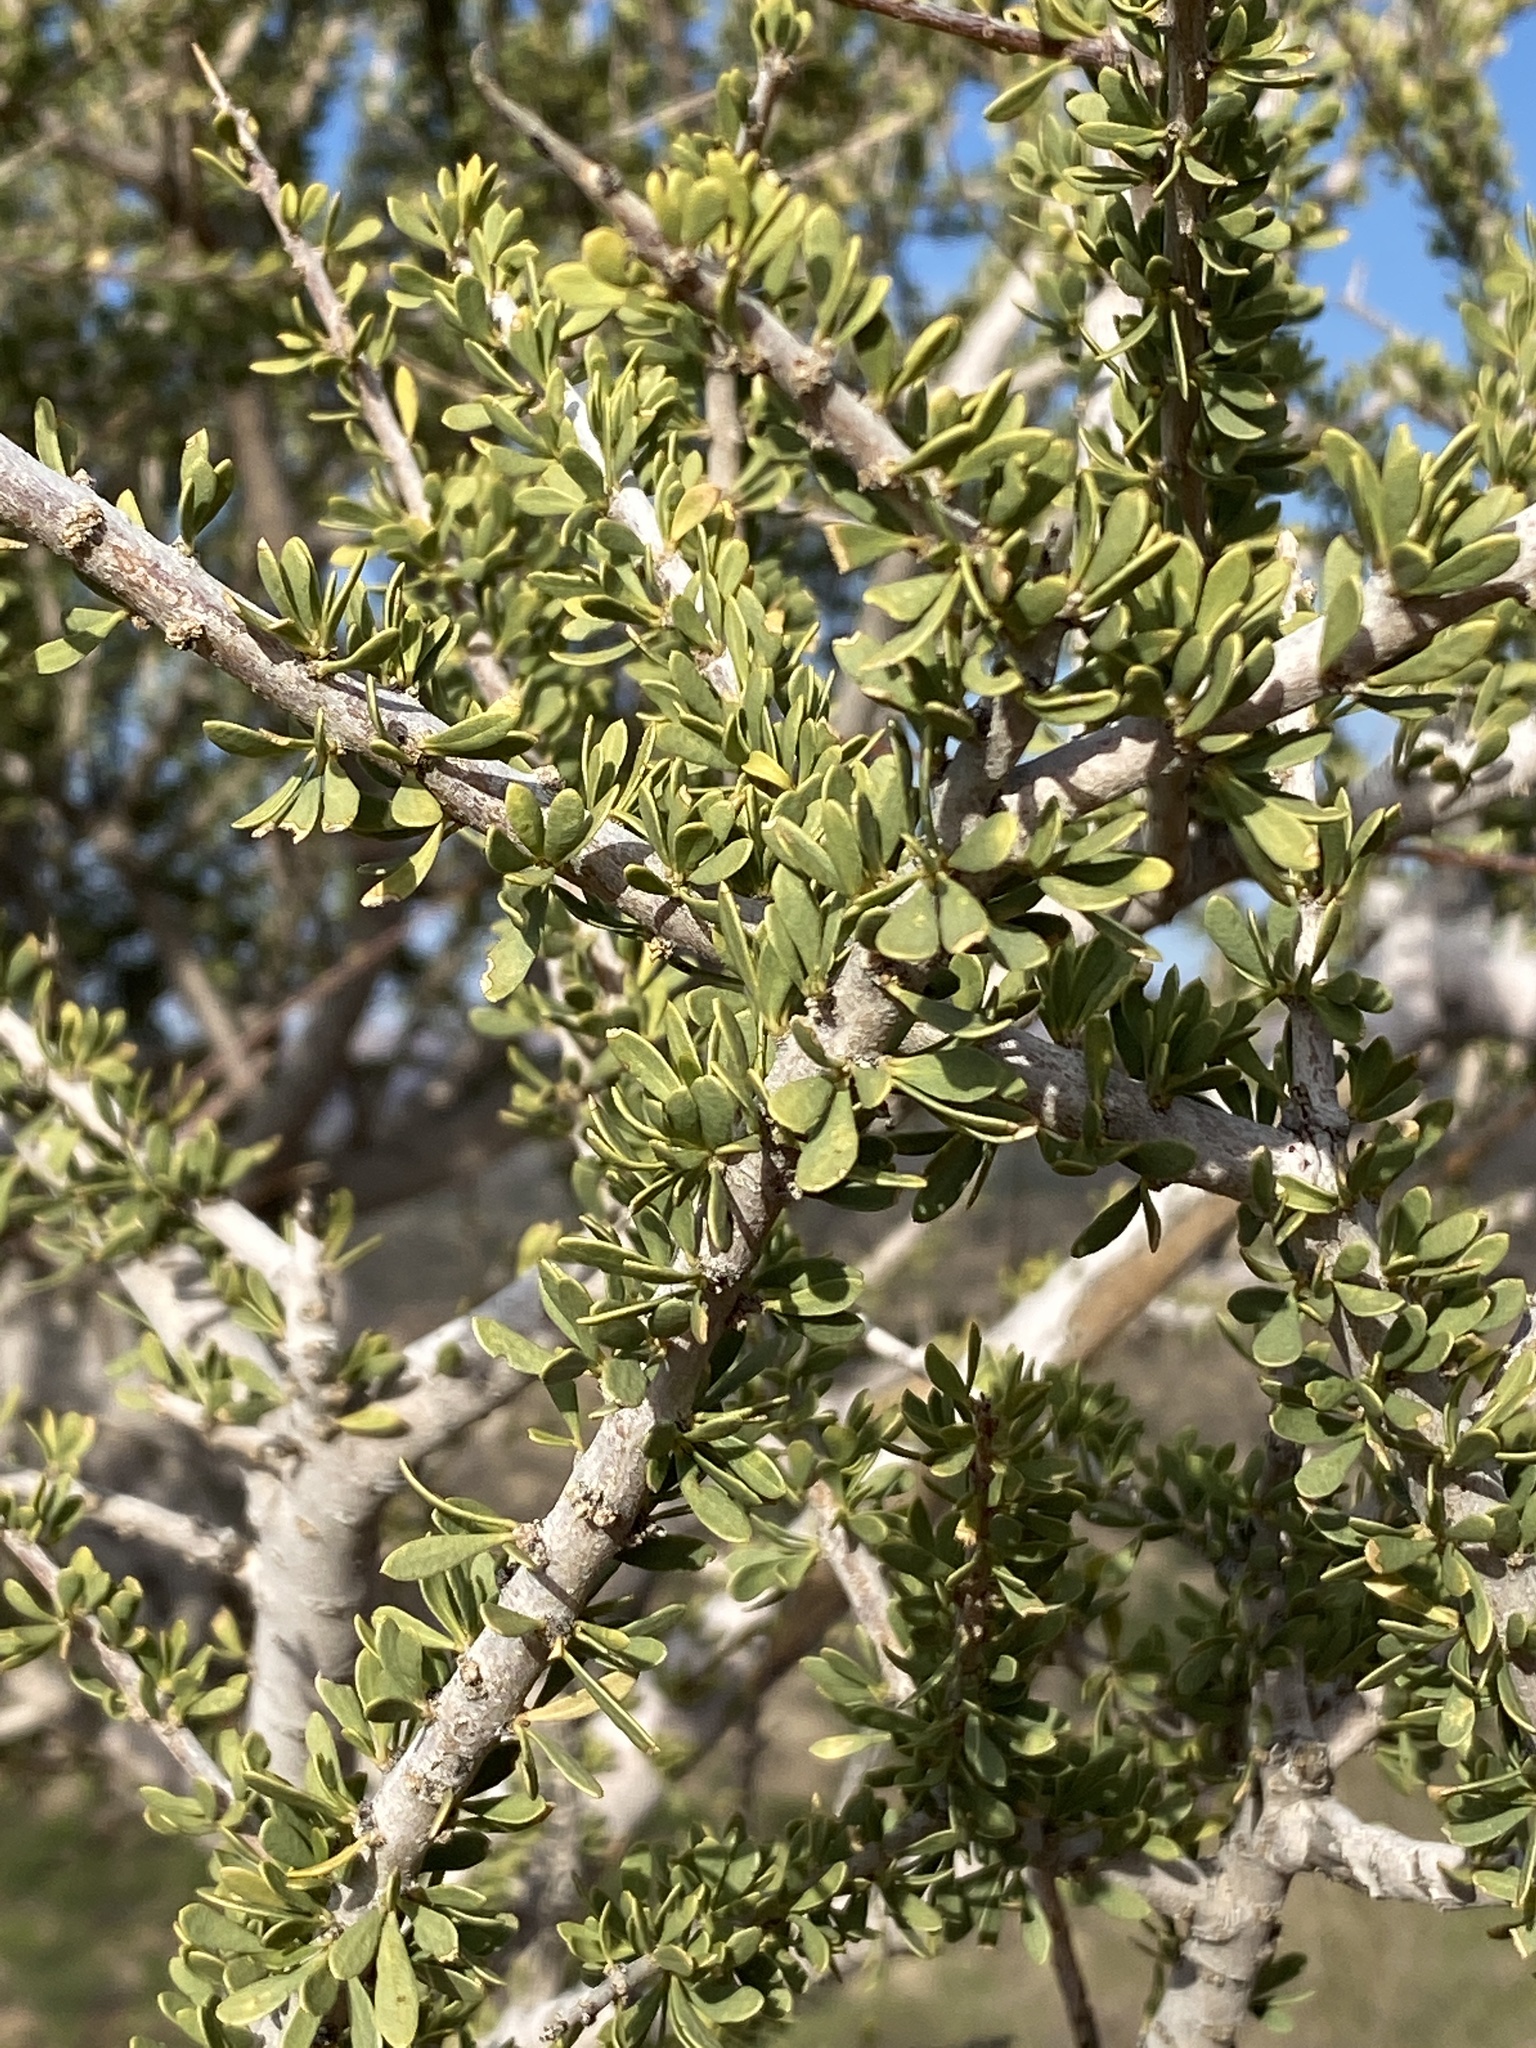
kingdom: Plantae
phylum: Tracheophyta
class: Magnoliopsida
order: Brassicales
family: Capparaceae
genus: Boscia
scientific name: Boscia foetida
